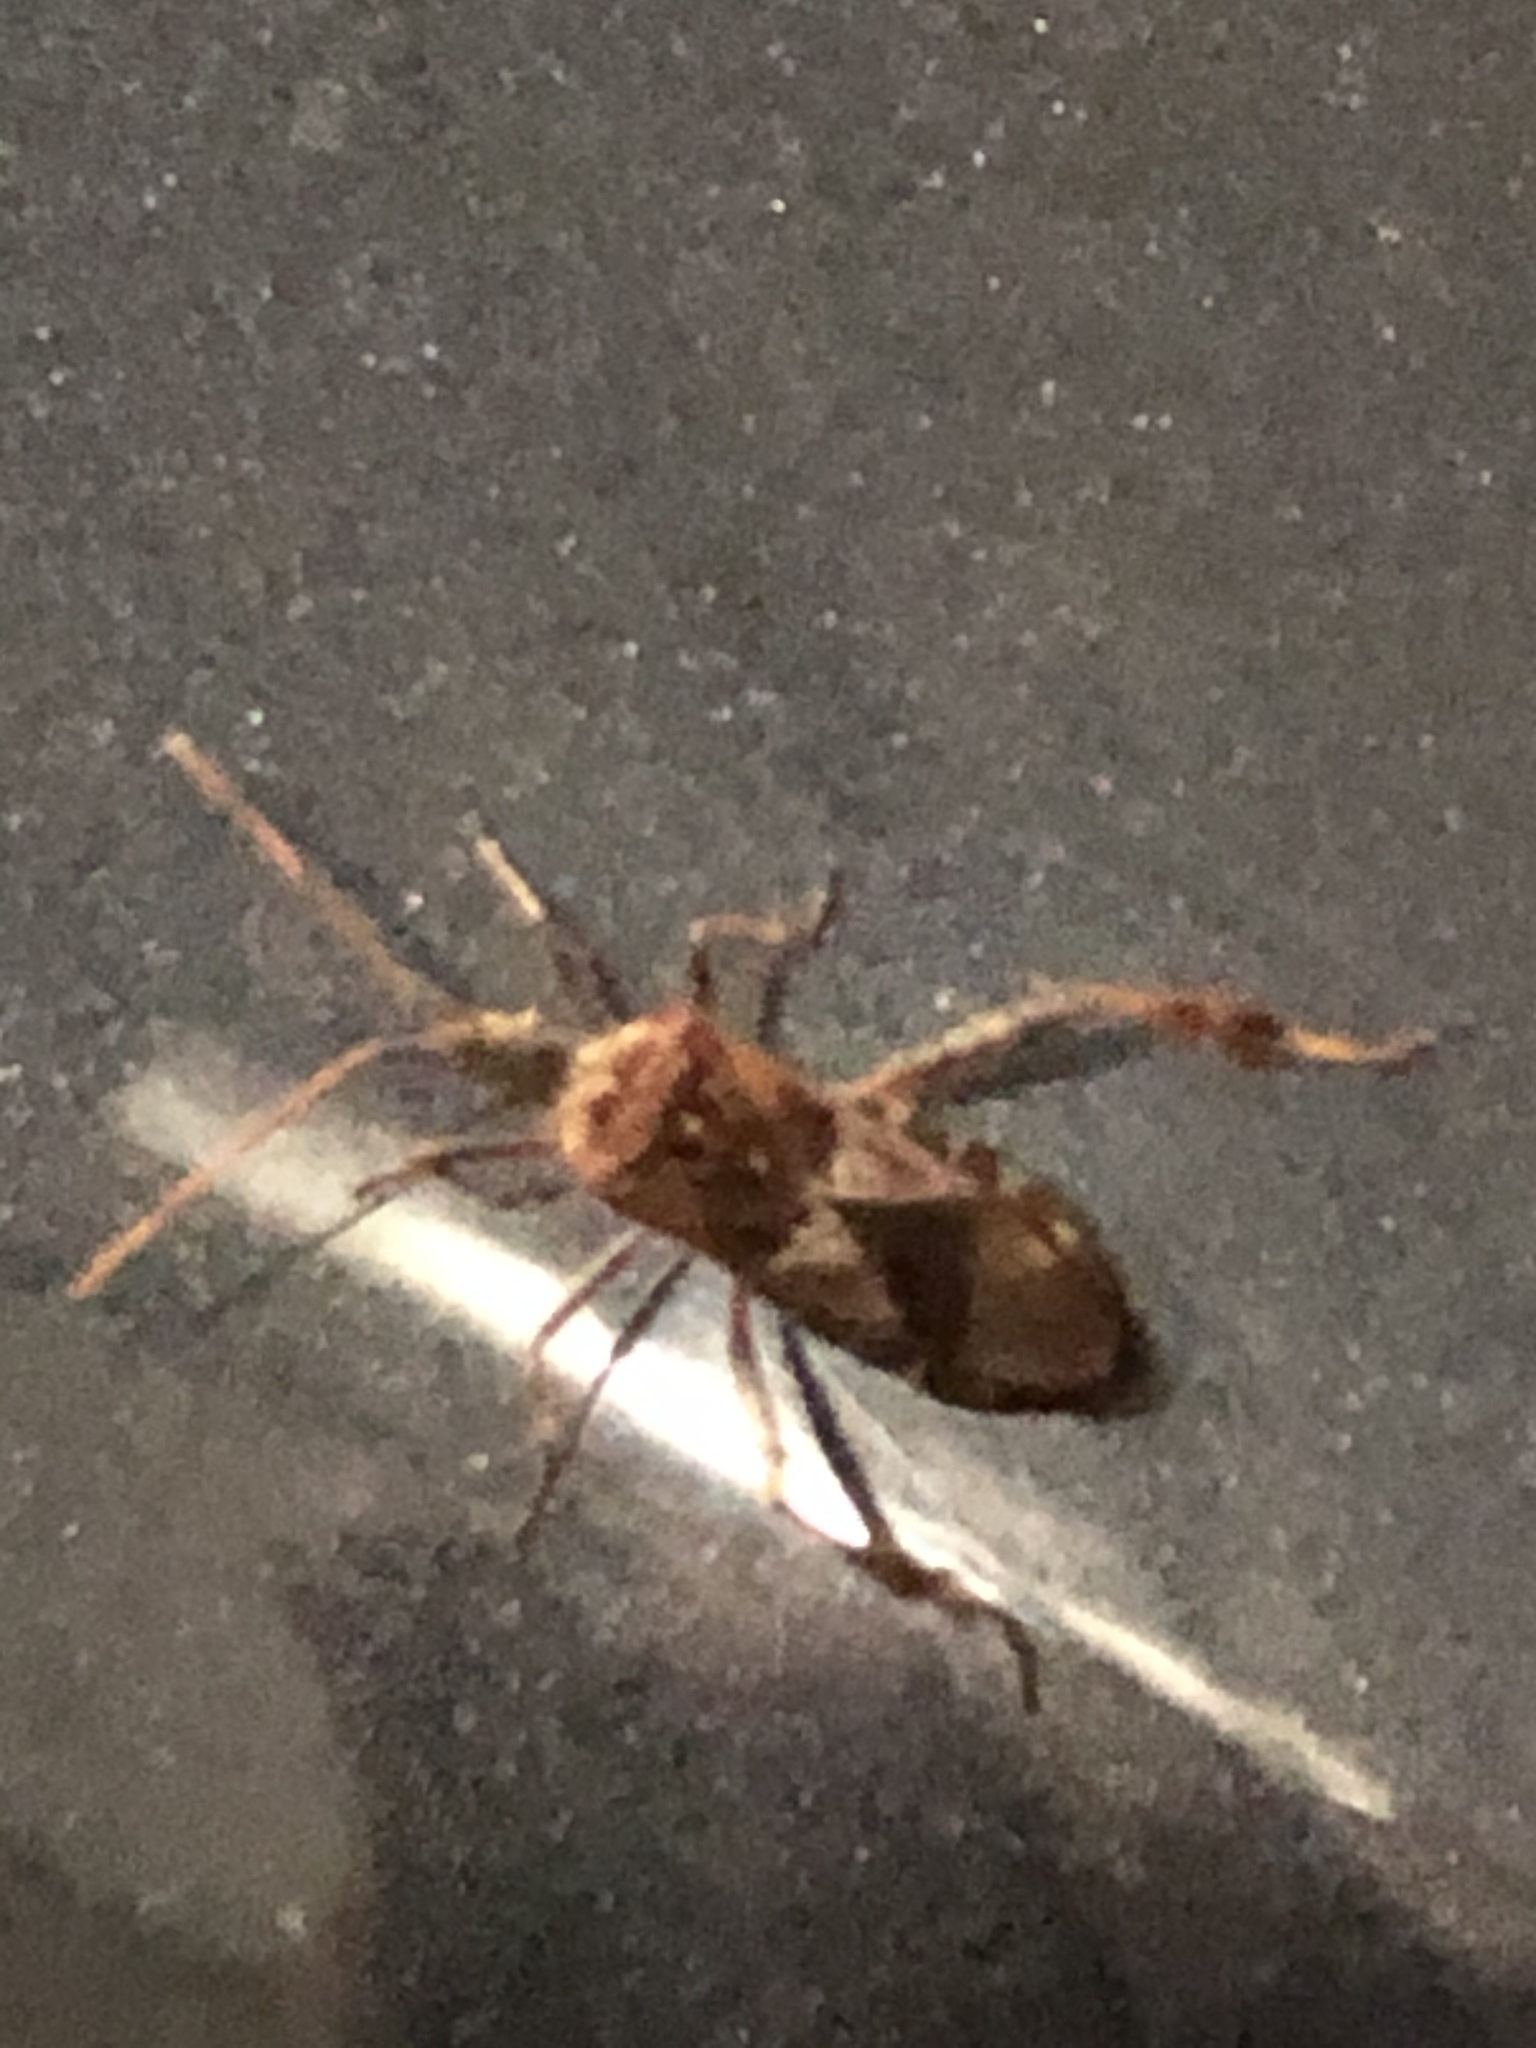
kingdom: Animalia
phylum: Arthropoda
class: Insecta
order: Hemiptera
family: Coreidae
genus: Leptoglossus
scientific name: Leptoglossus occidentalis
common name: Western conifer-seed bug
